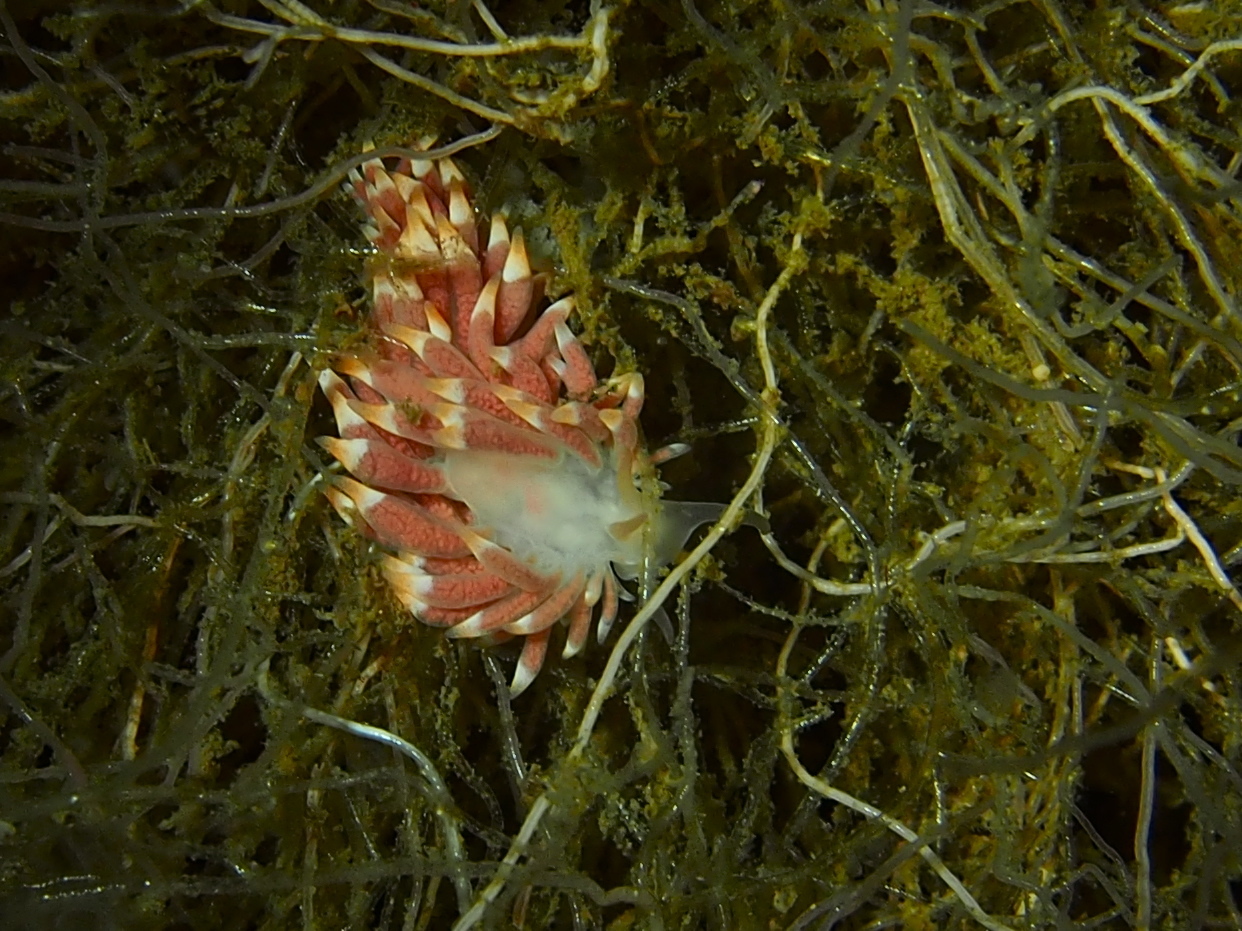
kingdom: Animalia
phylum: Mollusca
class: Gastropoda
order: Nudibranchia
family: Trinchesiidae
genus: Catriona
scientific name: Catriona aurantia
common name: Corange-tip cuthona
